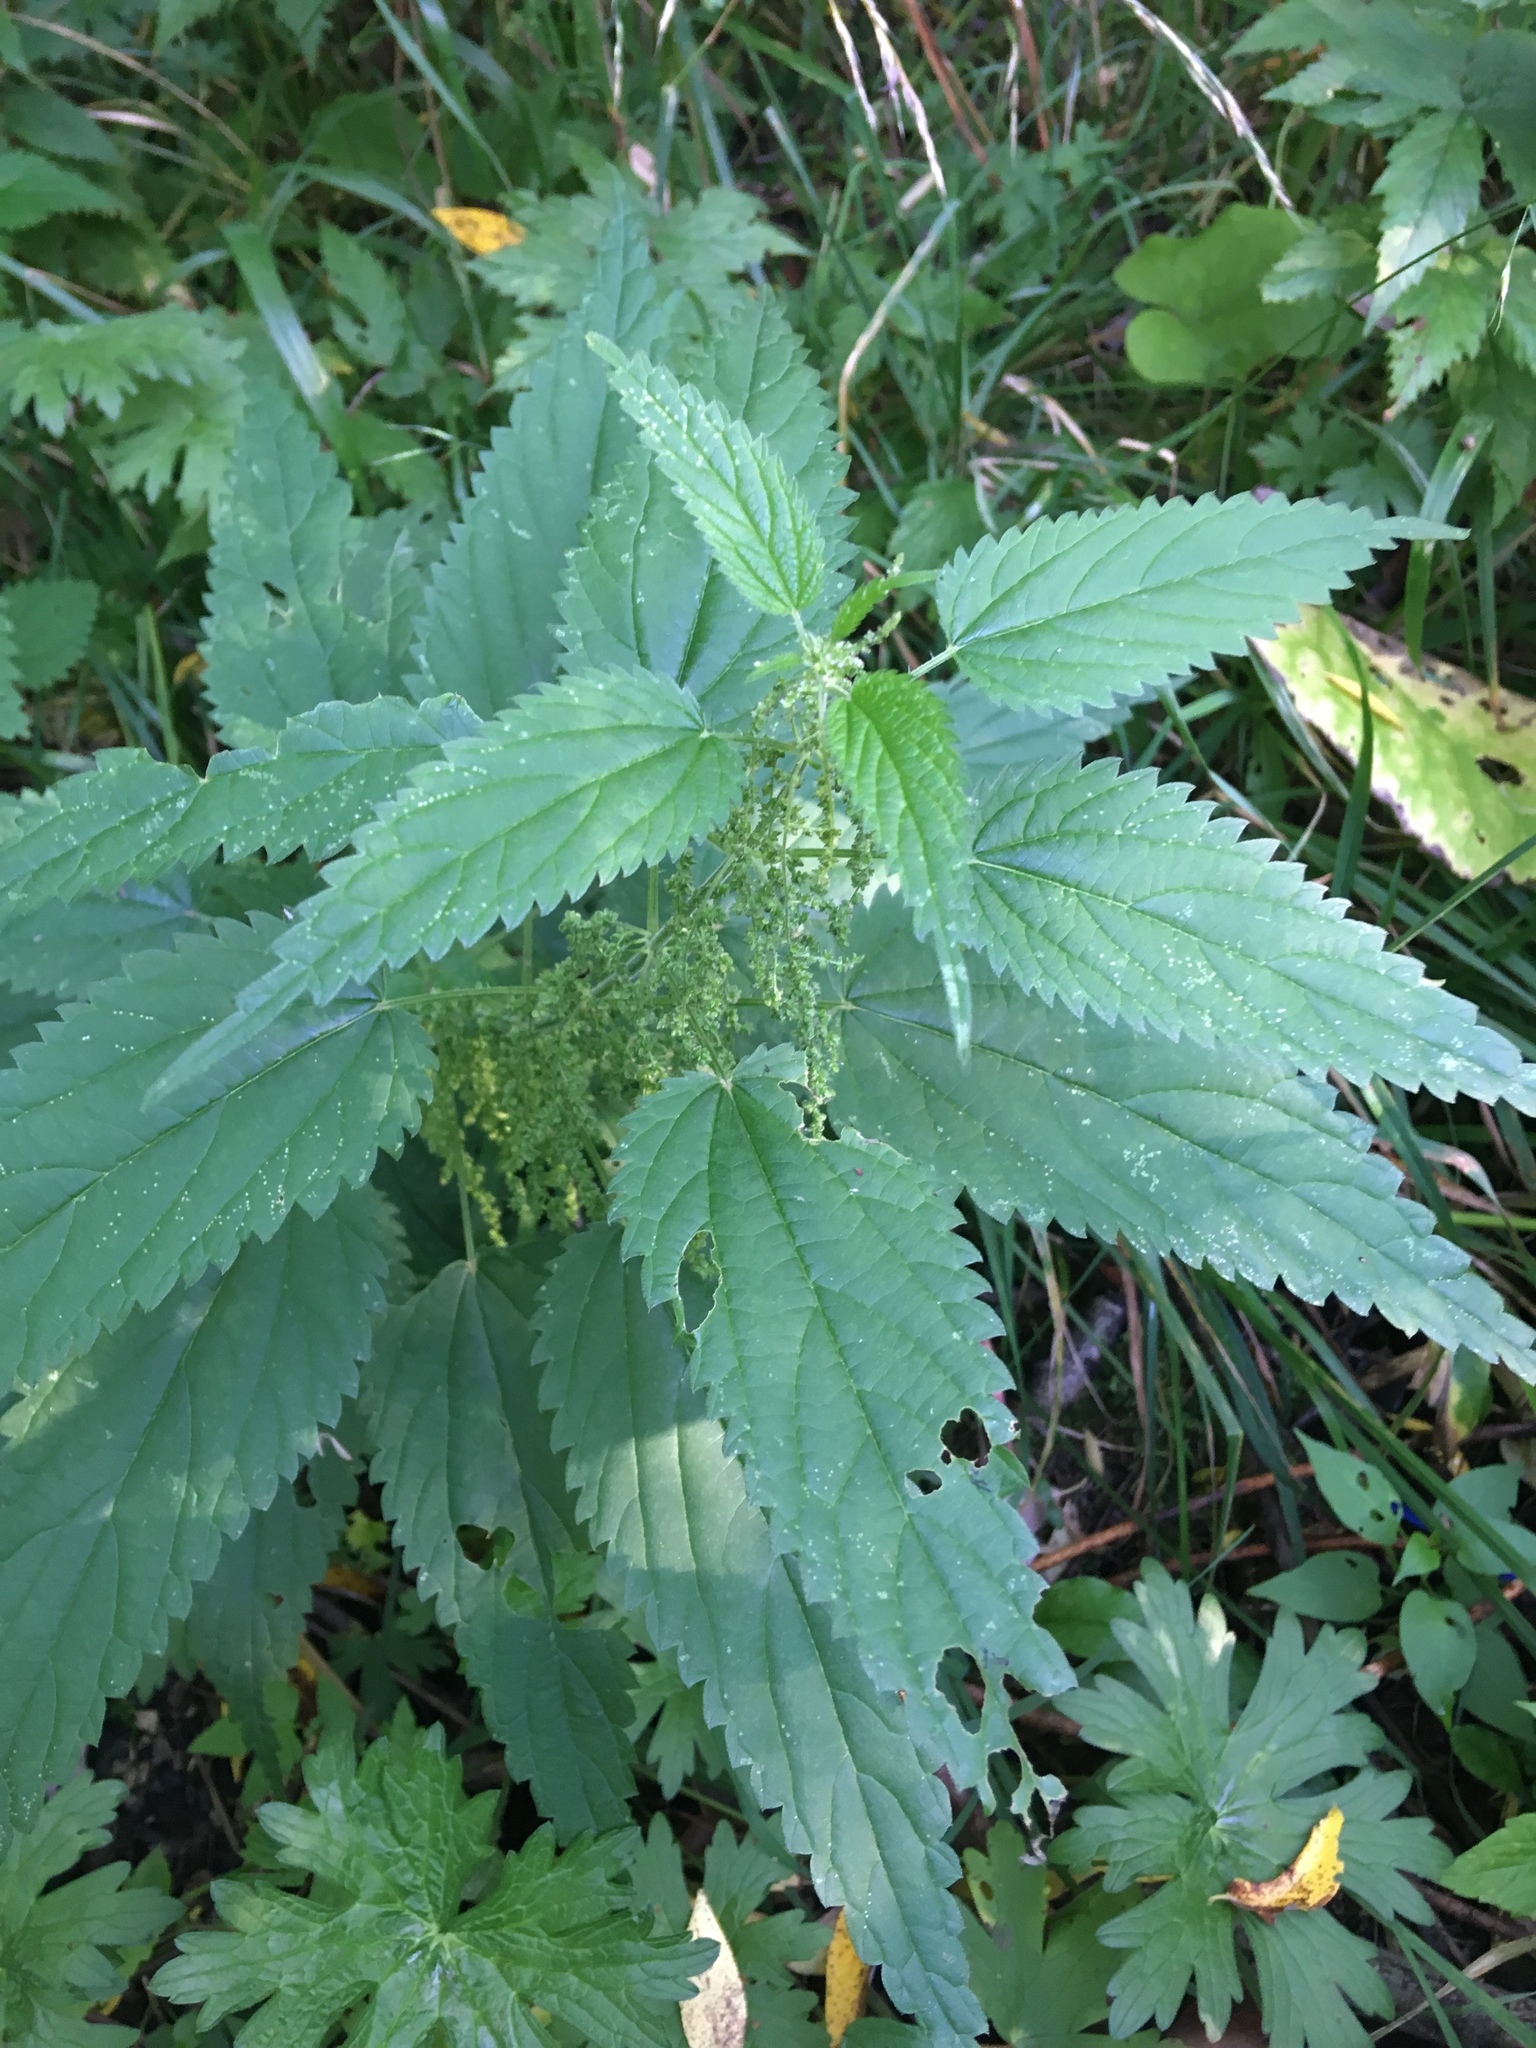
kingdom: Plantae
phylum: Tracheophyta
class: Magnoliopsida
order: Rosales
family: Urticaceae
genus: Urtica
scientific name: Urtica dioica
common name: Common nettle
